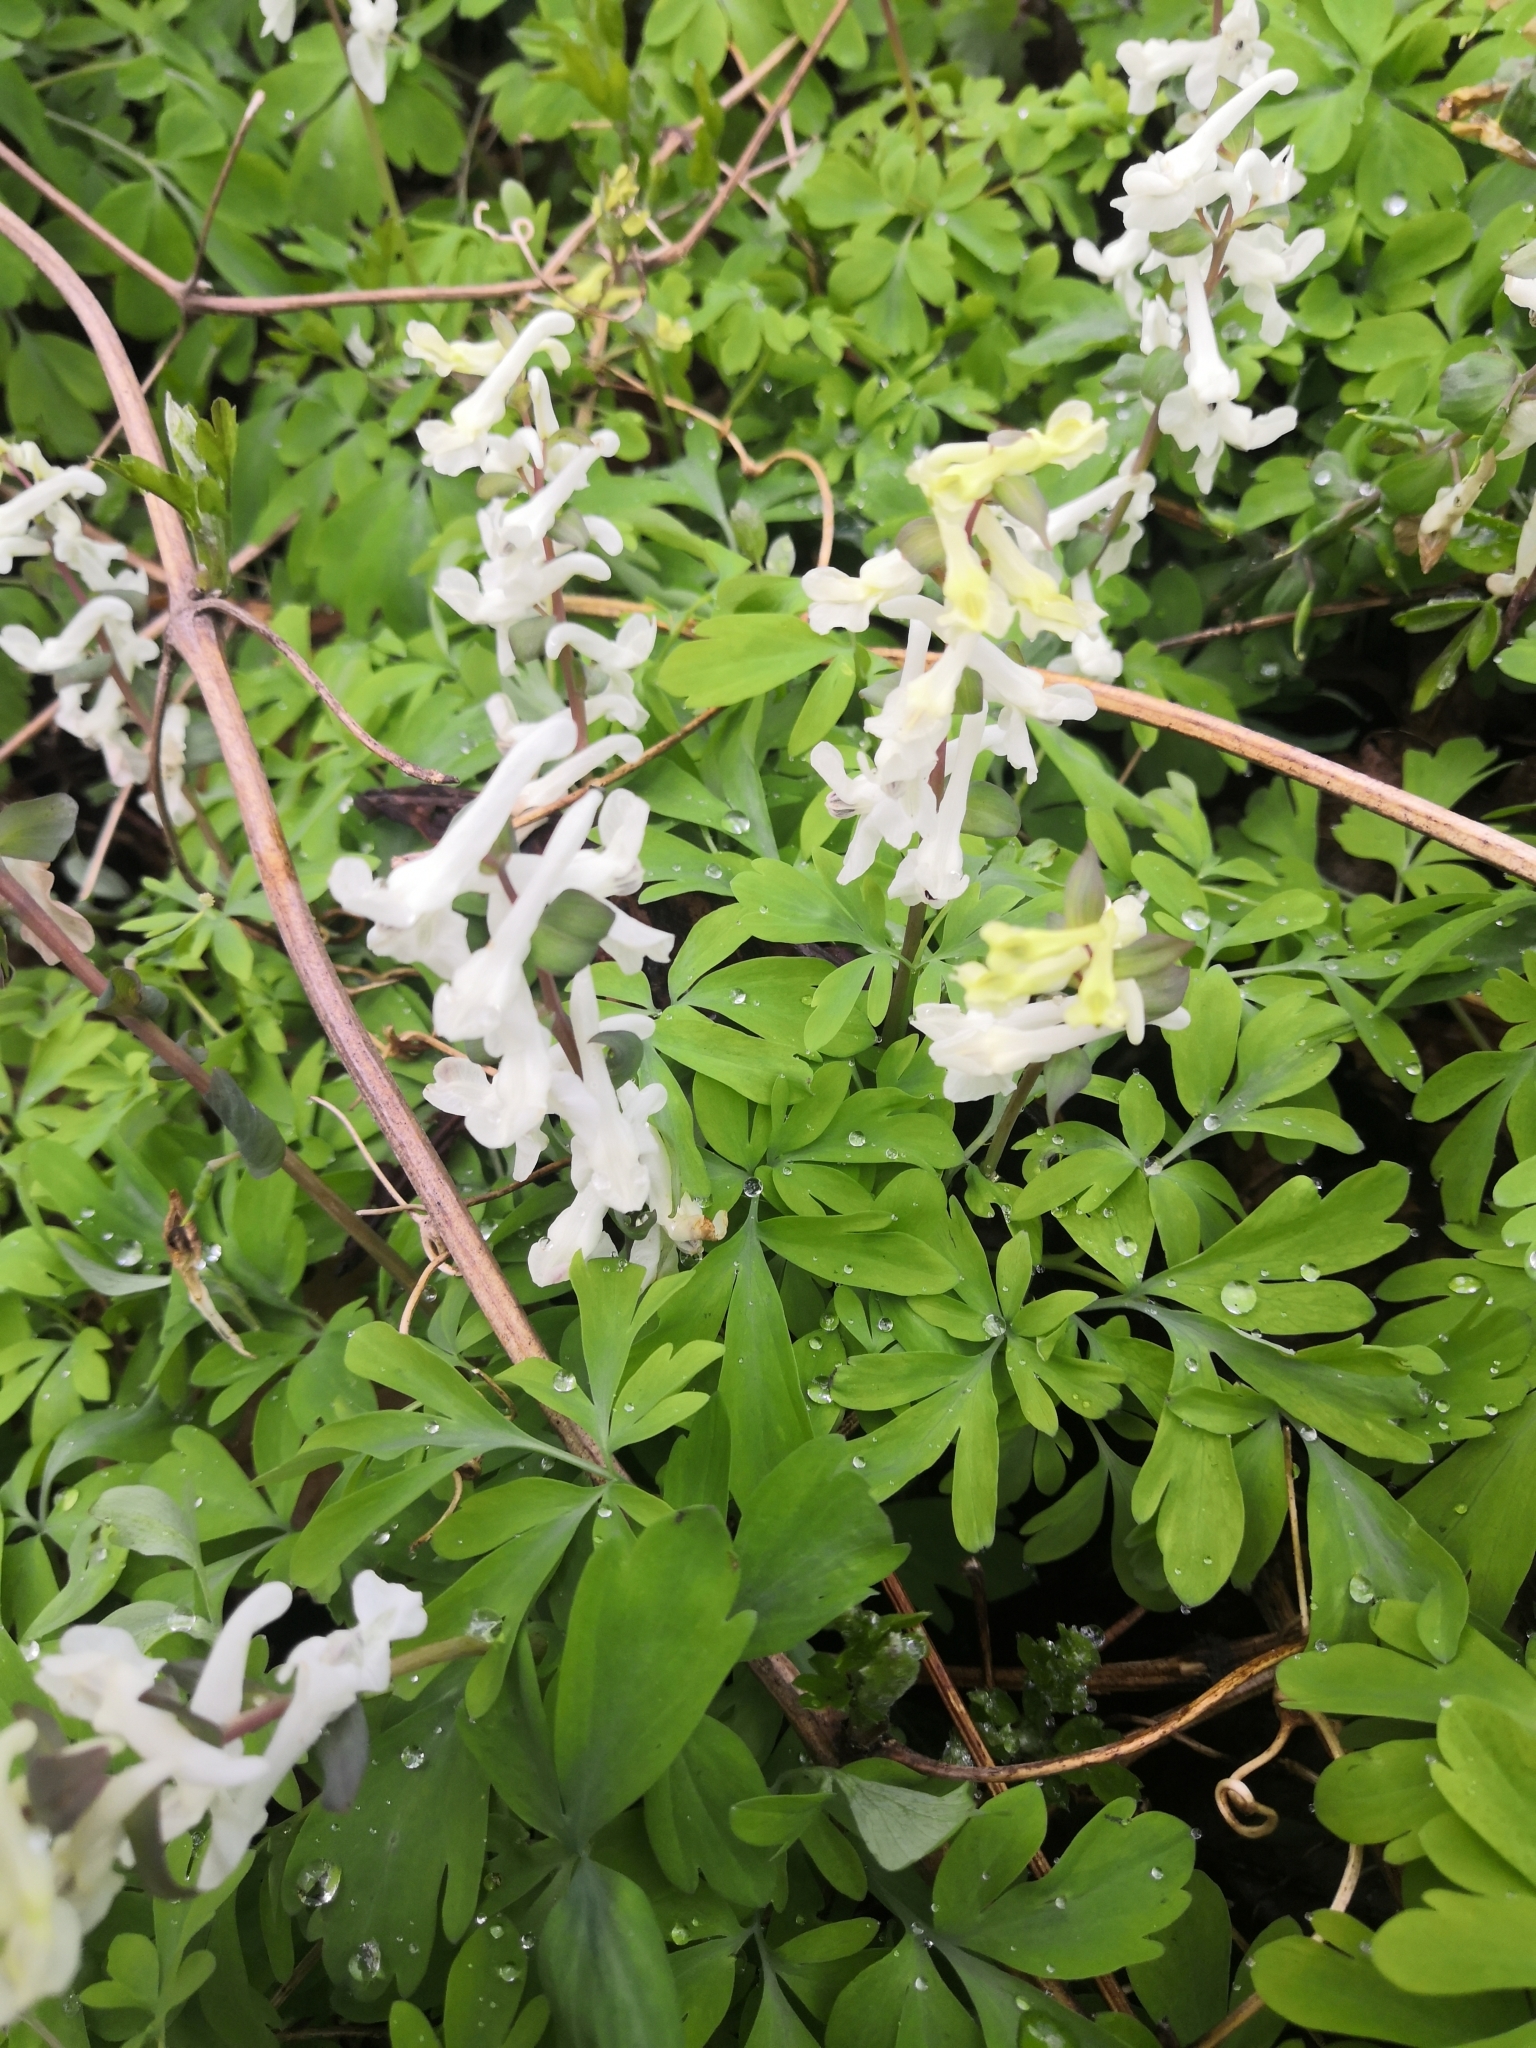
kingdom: Plantae
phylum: Tracheophyta
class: Magnoliopsida
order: Ranunculales
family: Papaveraceae
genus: Corydalis
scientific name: Corydalis cava
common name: Hollowroot
